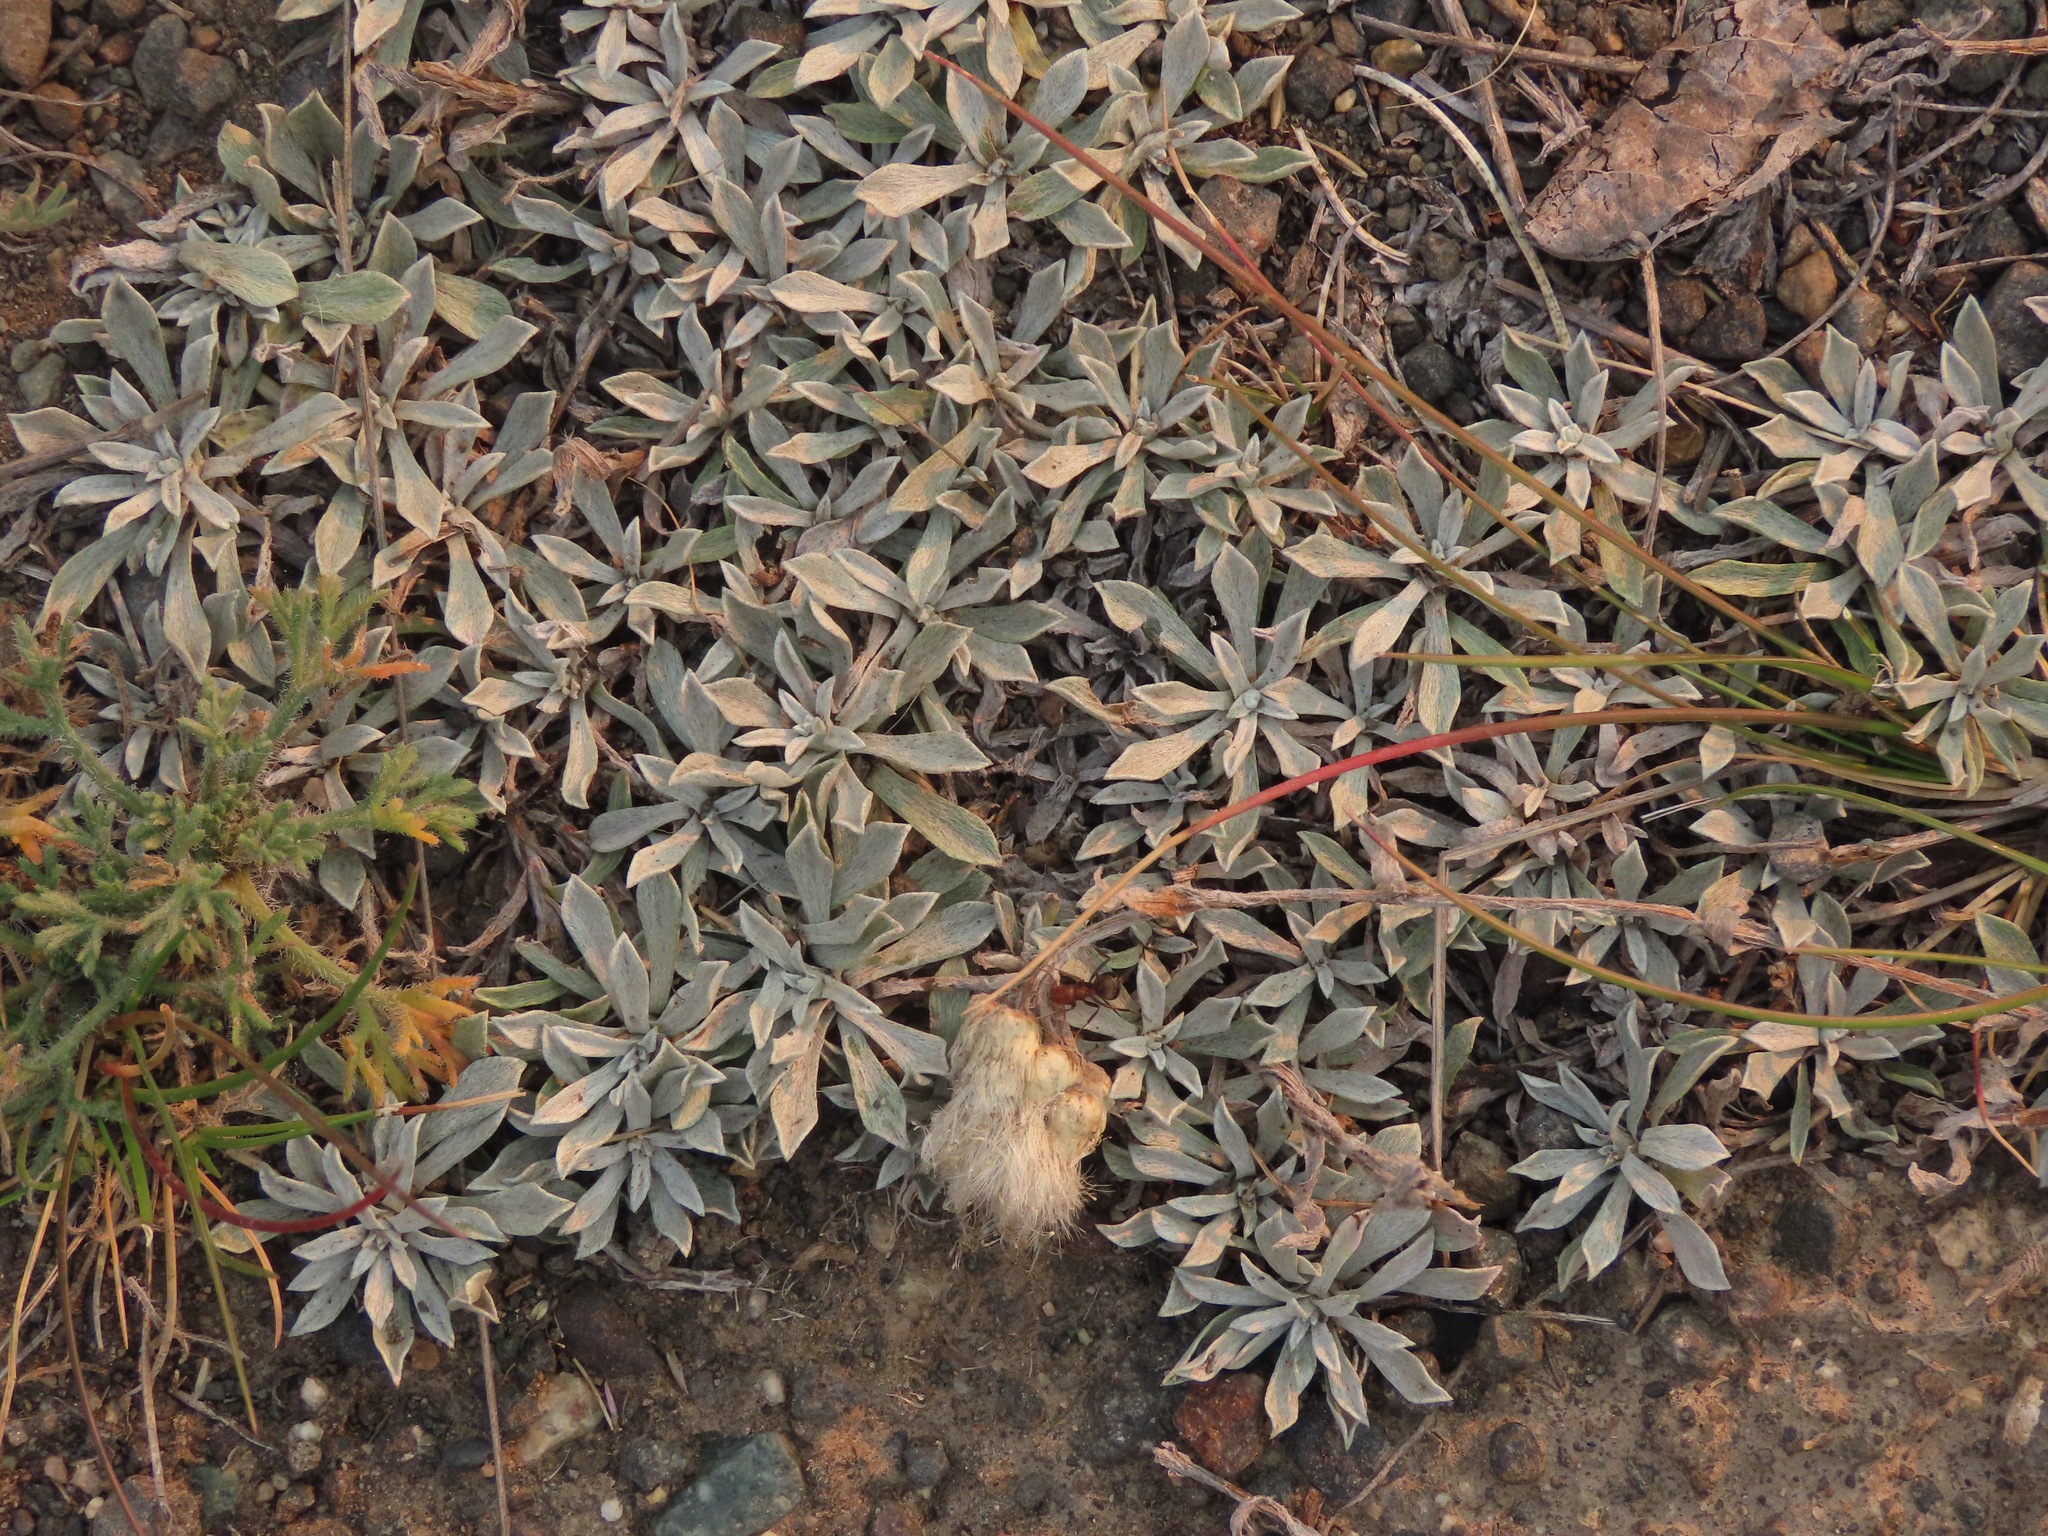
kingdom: Plantae
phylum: Tracheophyta
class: Magnoliopsida
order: Asterales
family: Asteraceae
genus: Antennaria
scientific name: Antennaria umbrinella
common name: Brown pussytoes
